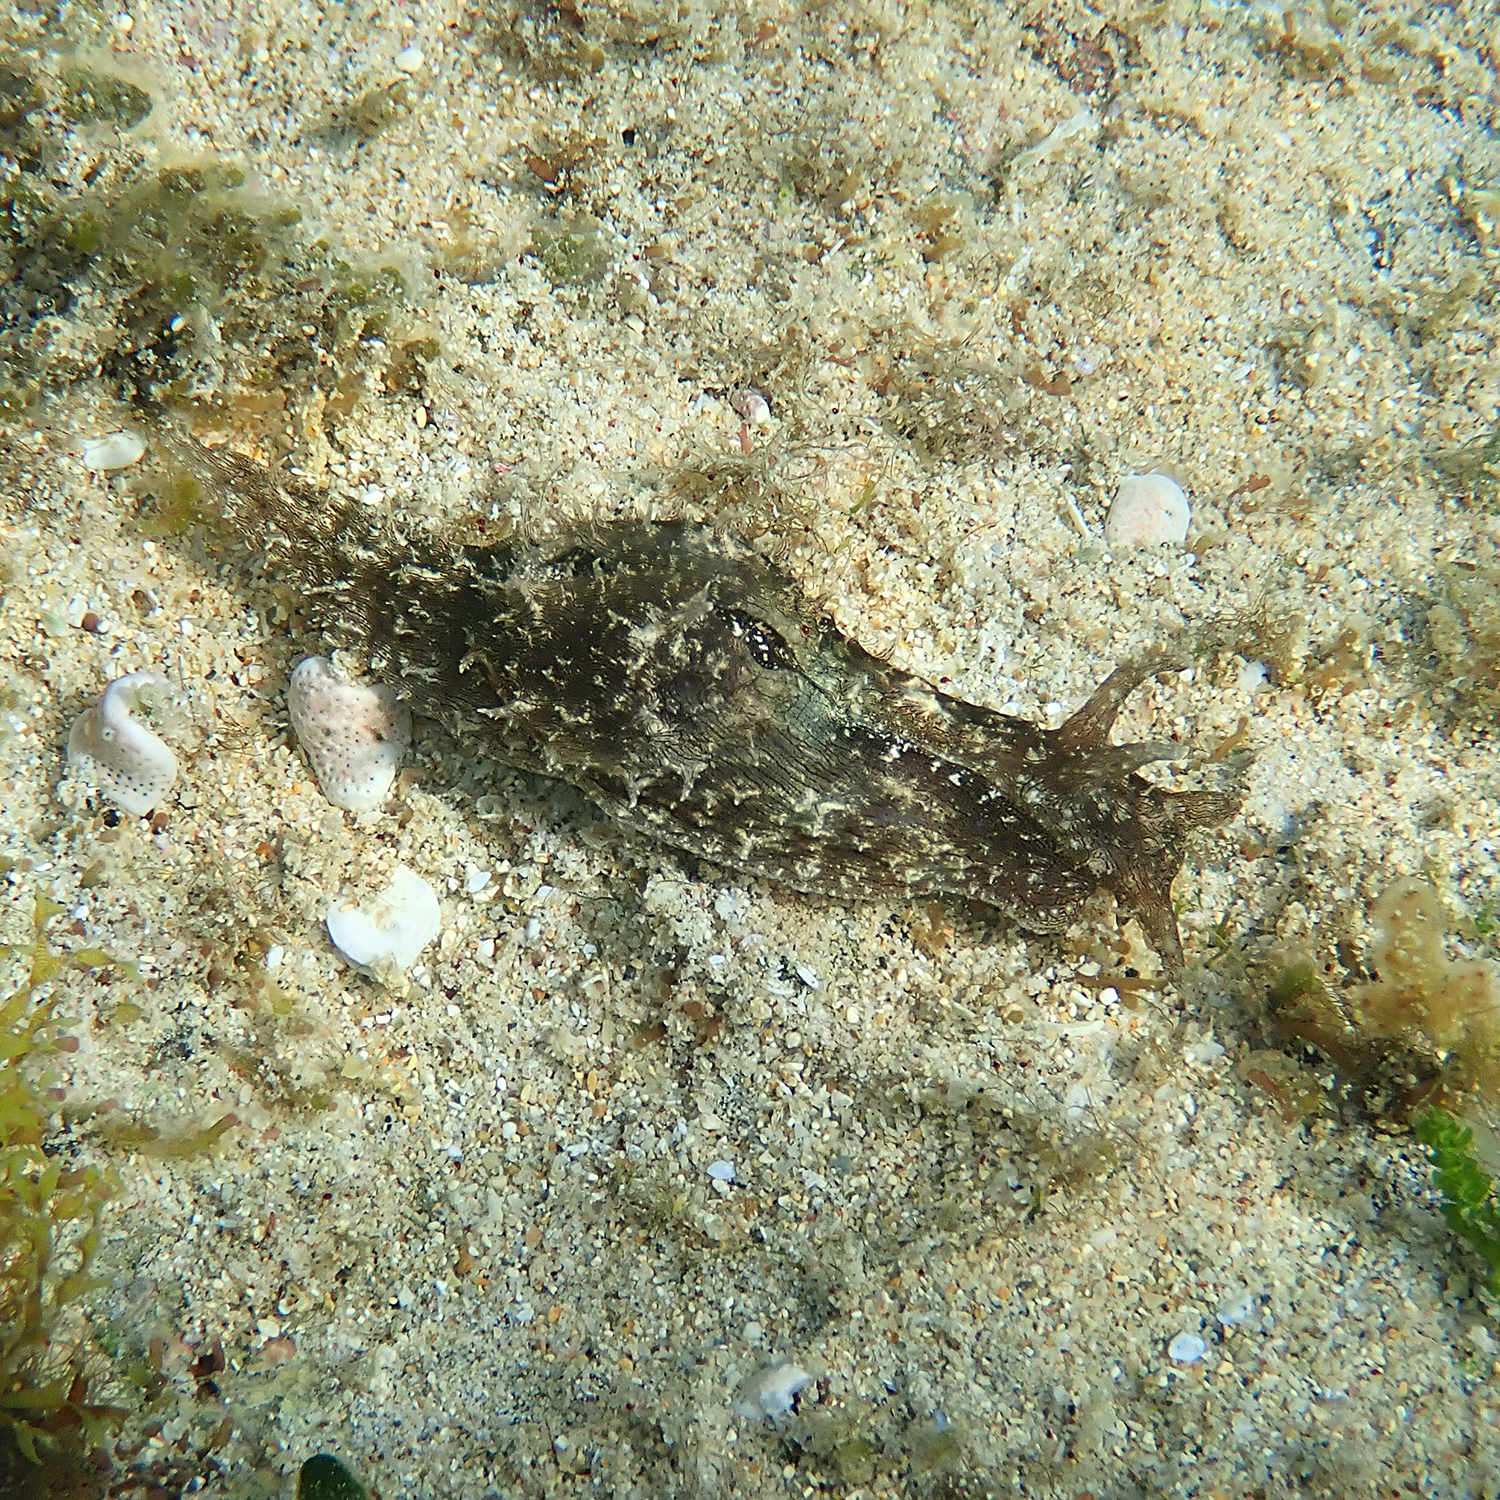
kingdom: Animalia
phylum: Mollusca
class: Gastropoda
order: Aplysiida
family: Aplysiidae
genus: Stylocheilus
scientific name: Stylocheilus striatus
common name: Striated seahare
